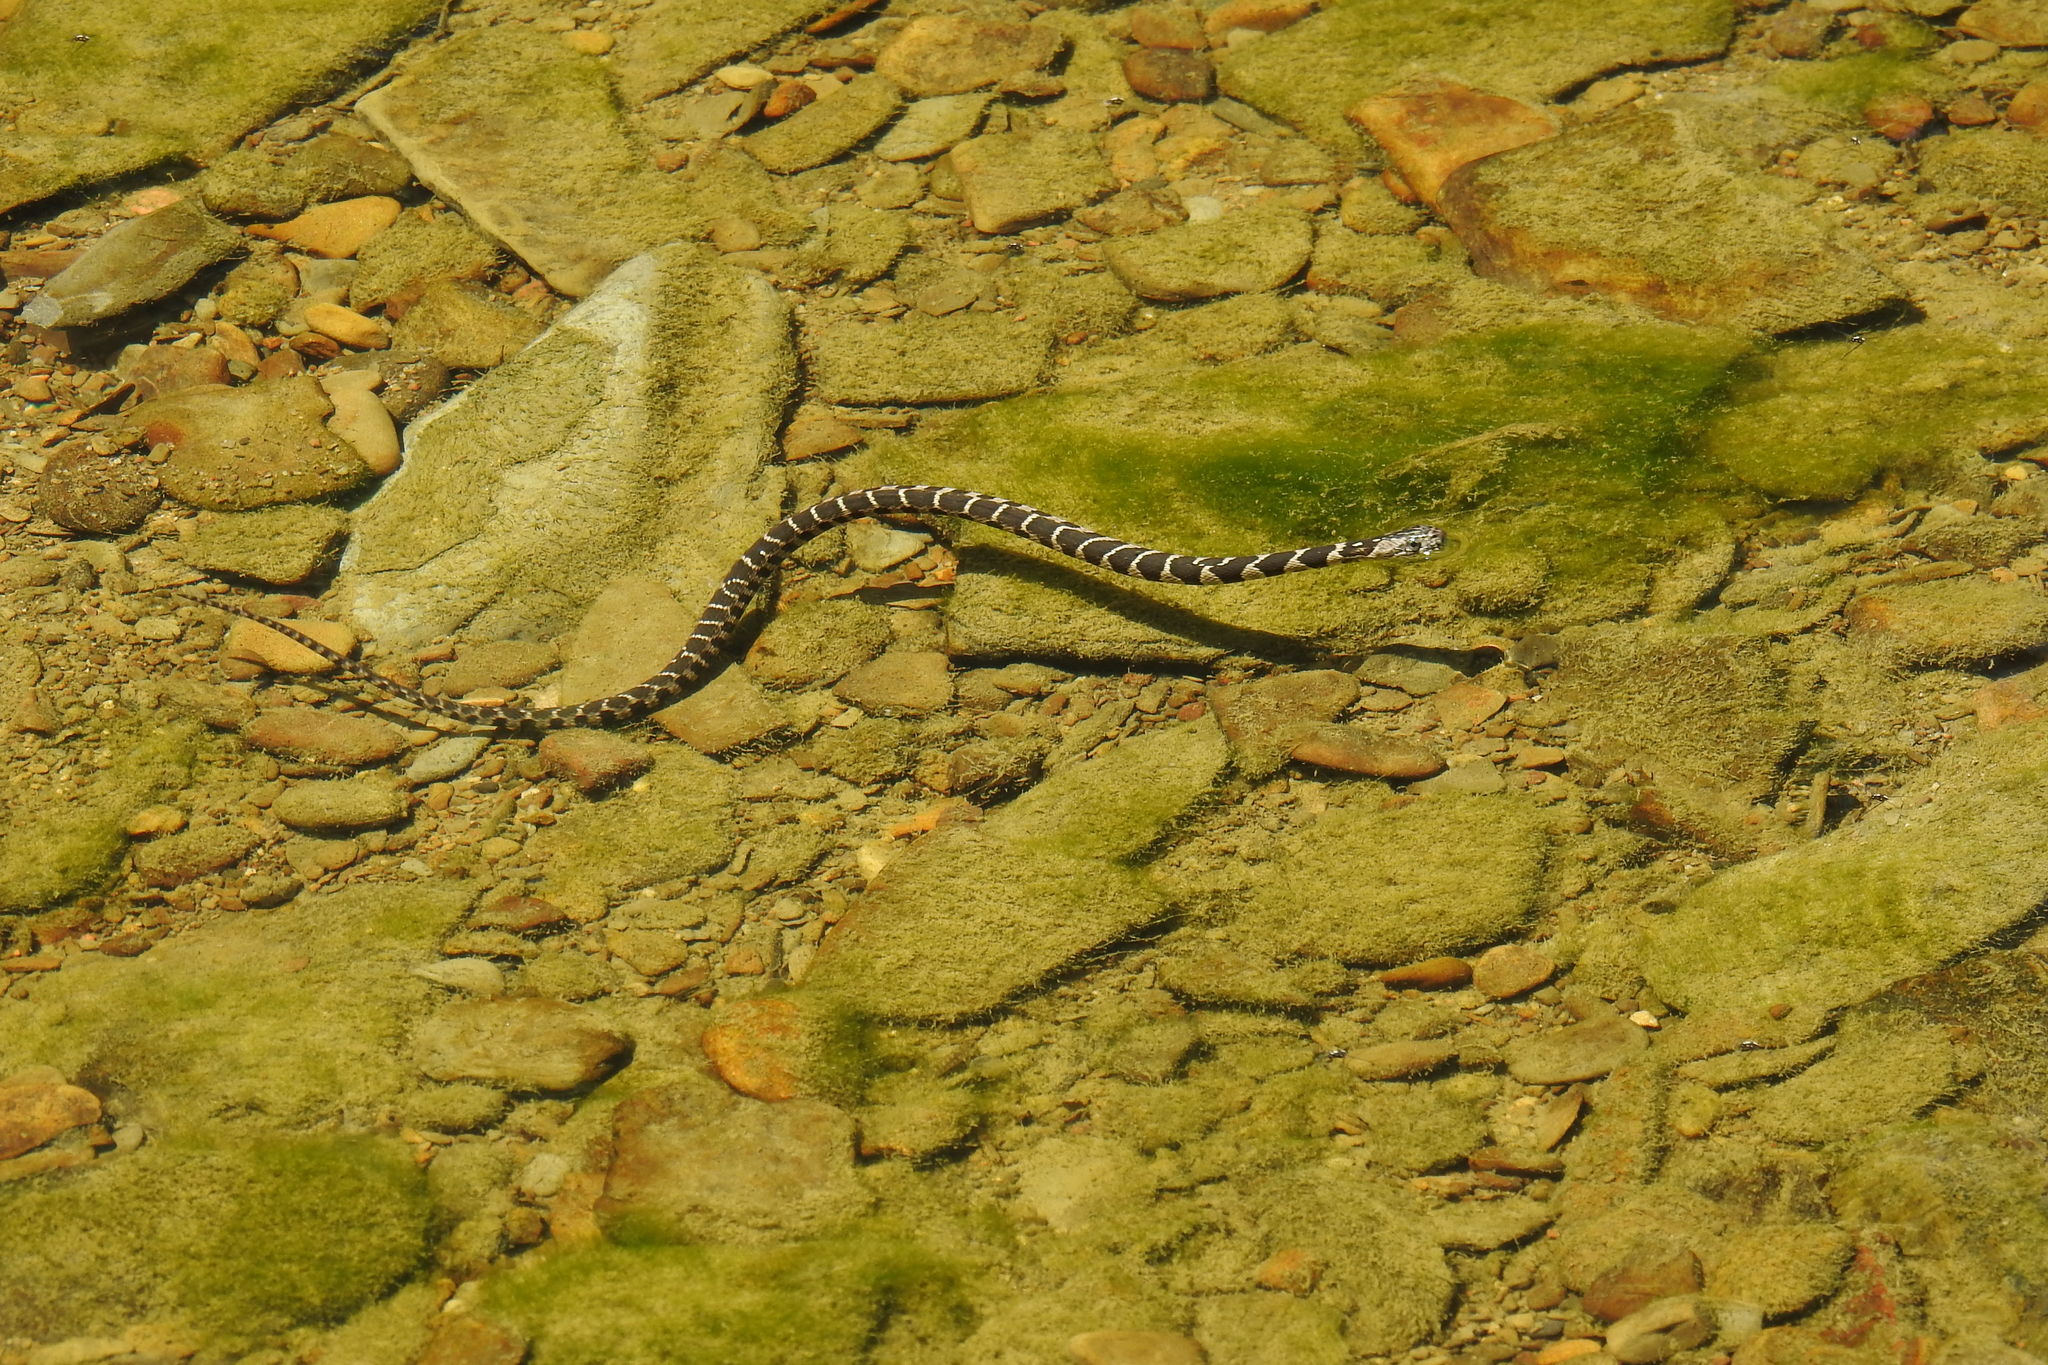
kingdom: Animalia
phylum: Chordata
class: Squamata
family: Colubridae
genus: Nerodia
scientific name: Nerodia sipedon
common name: Northern water snake
